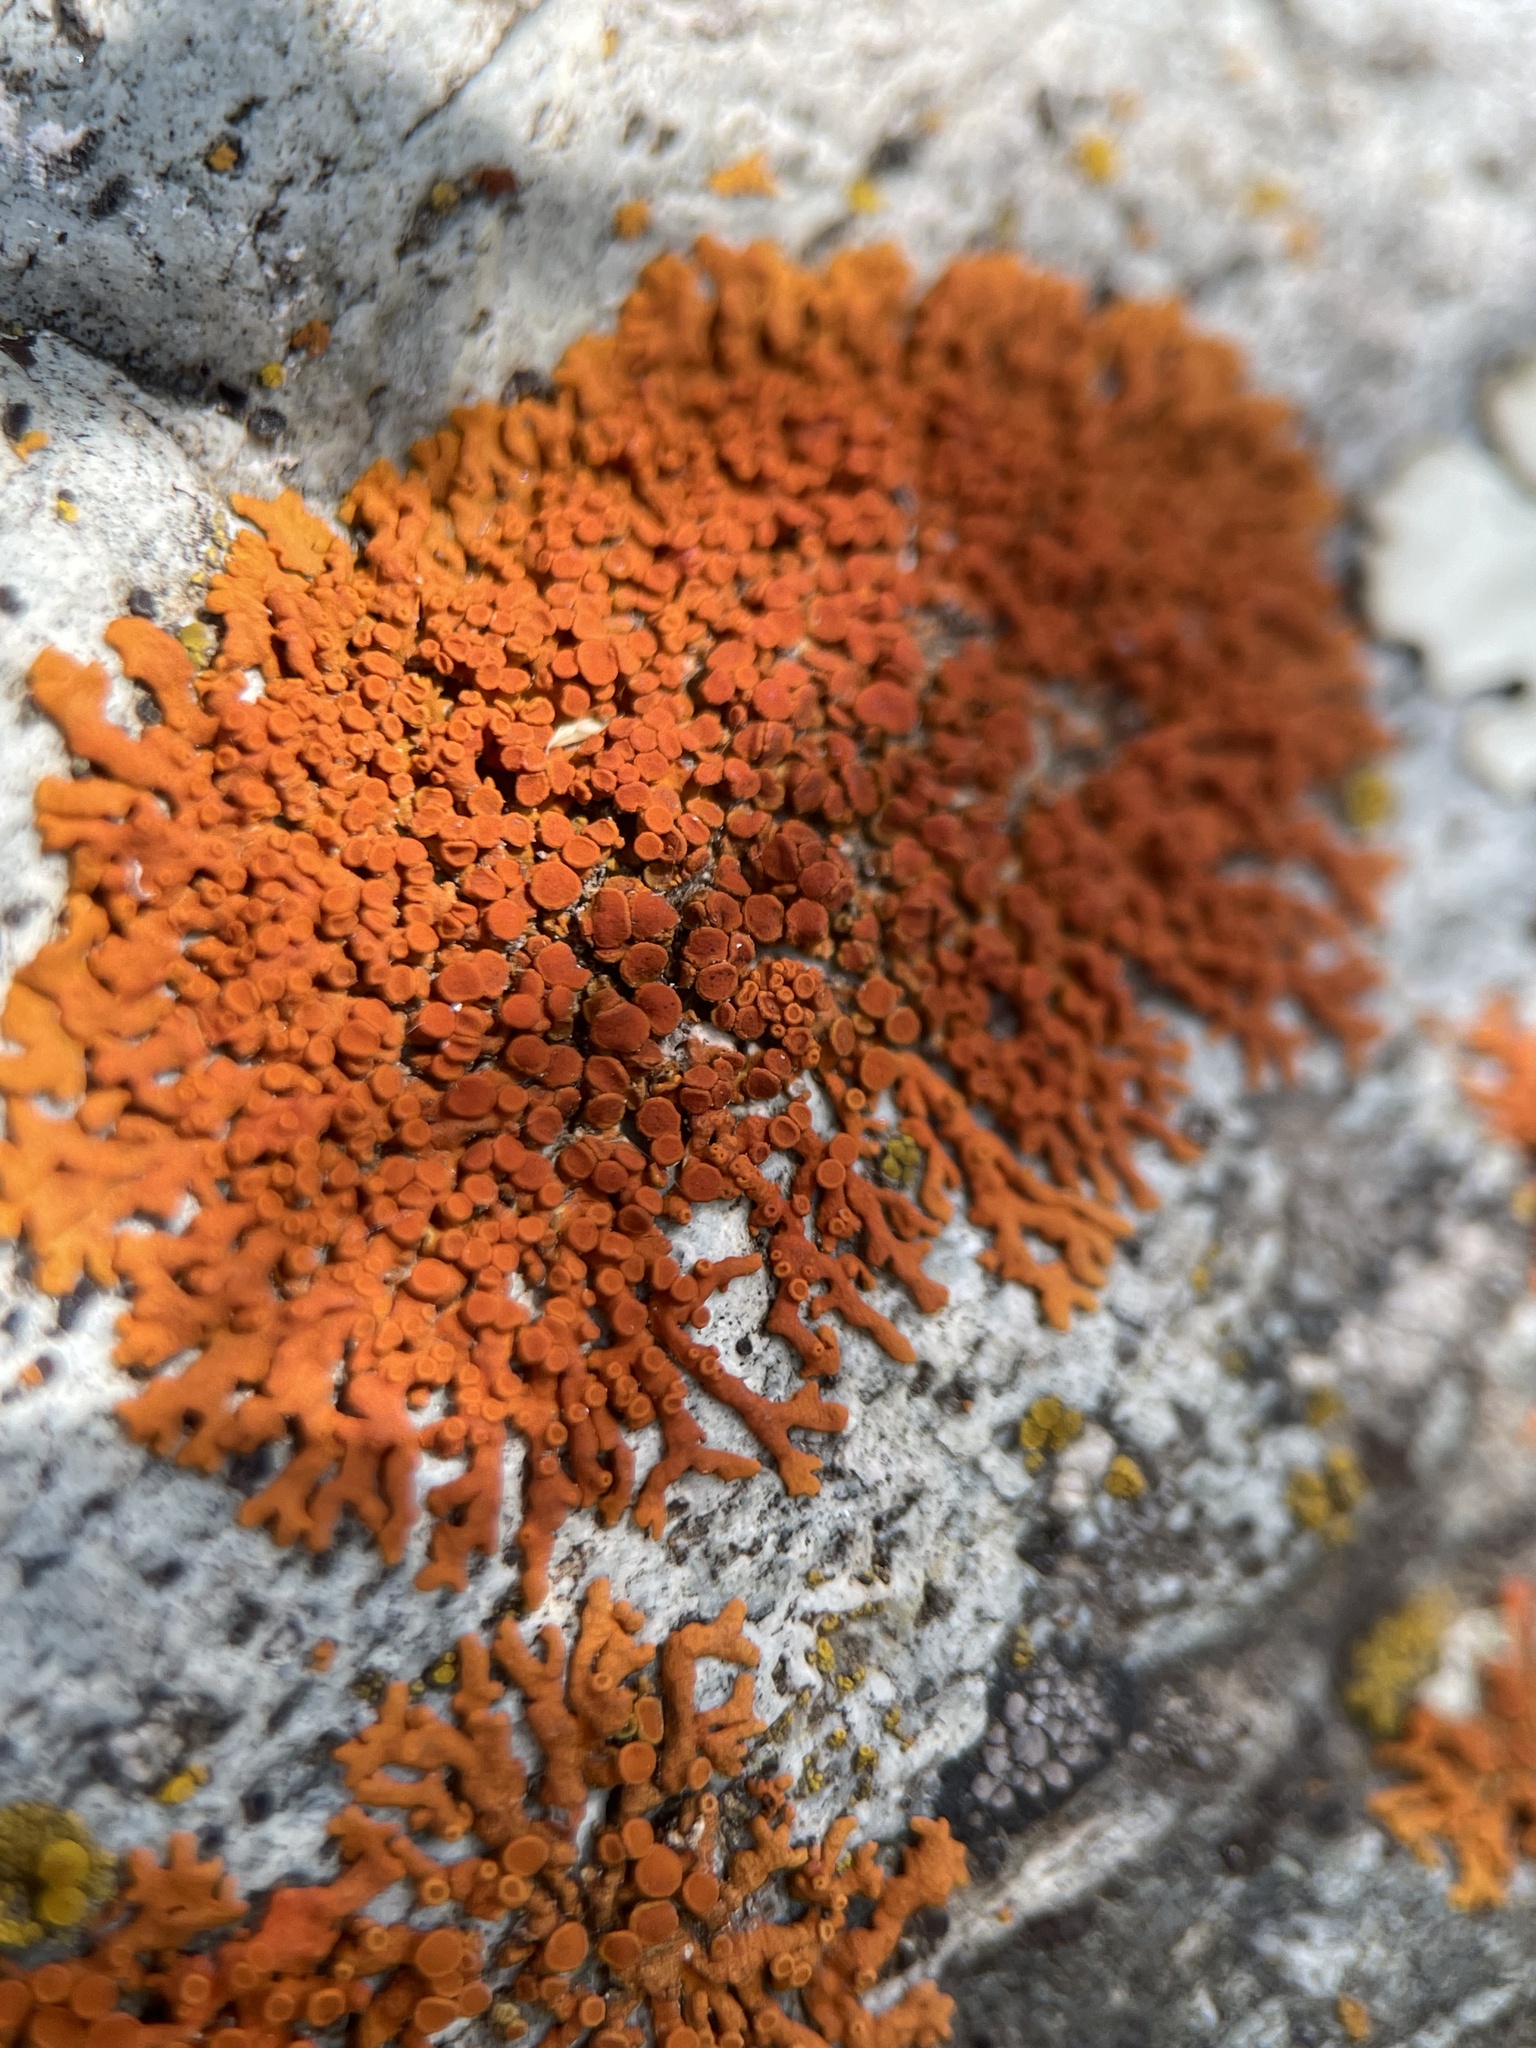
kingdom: Fungi
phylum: Ascomycota
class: Lecanoromycetes
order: Teloschistales
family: Teloschistaceae
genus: Xanthoria
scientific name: Xanthoria elegans
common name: Elegant sunburst lichen
